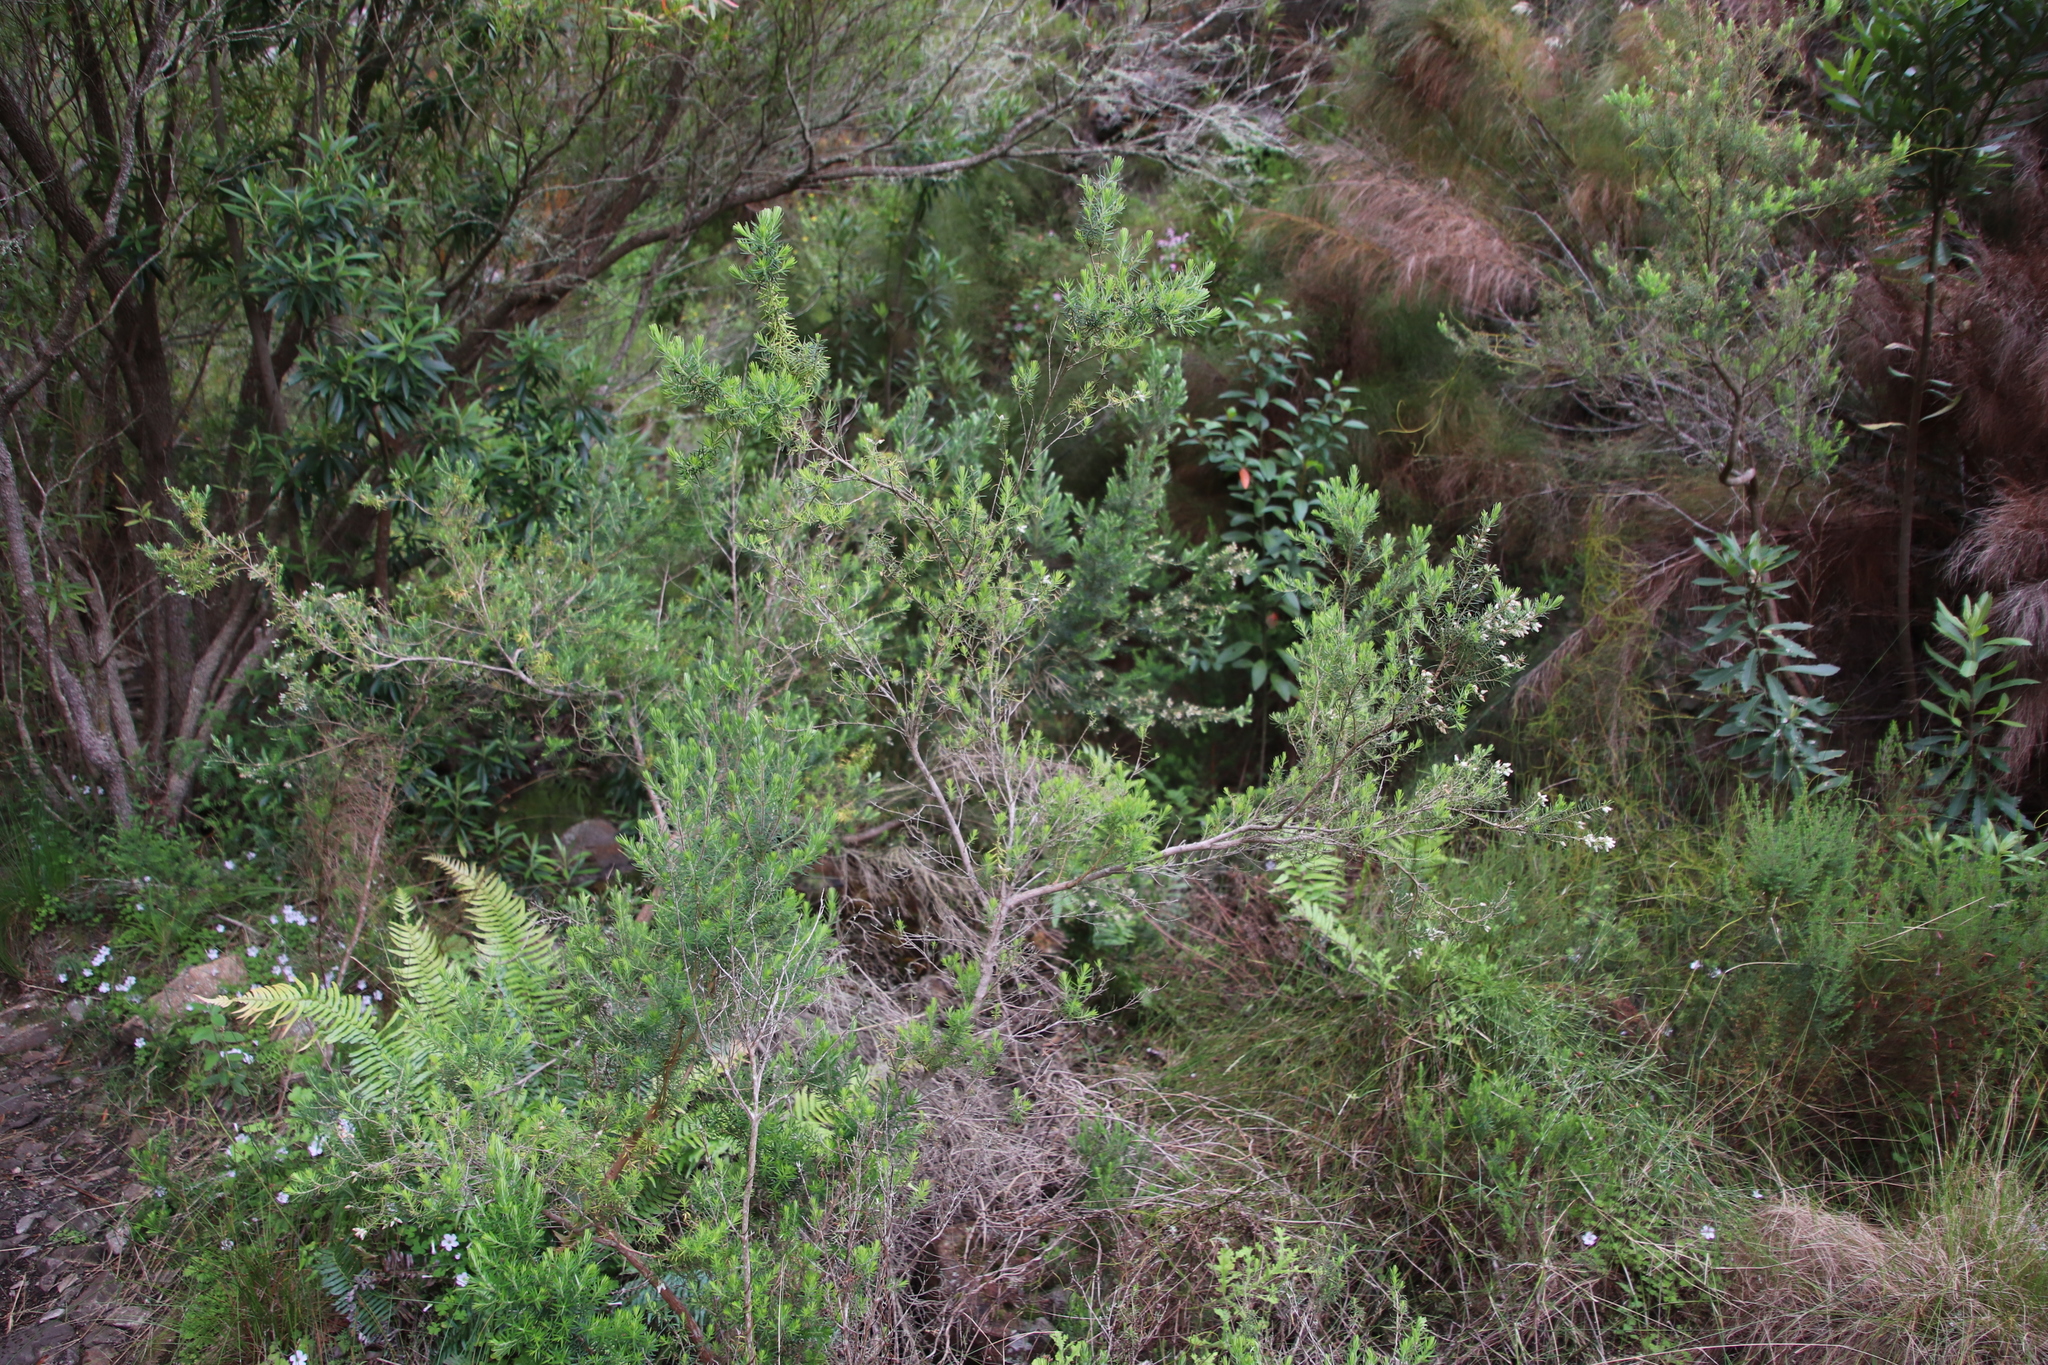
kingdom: Plantae
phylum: Tracheophyta
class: Magnoliopsida
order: Ericales
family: Ericaceae
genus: Erica
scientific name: Erica caffra
